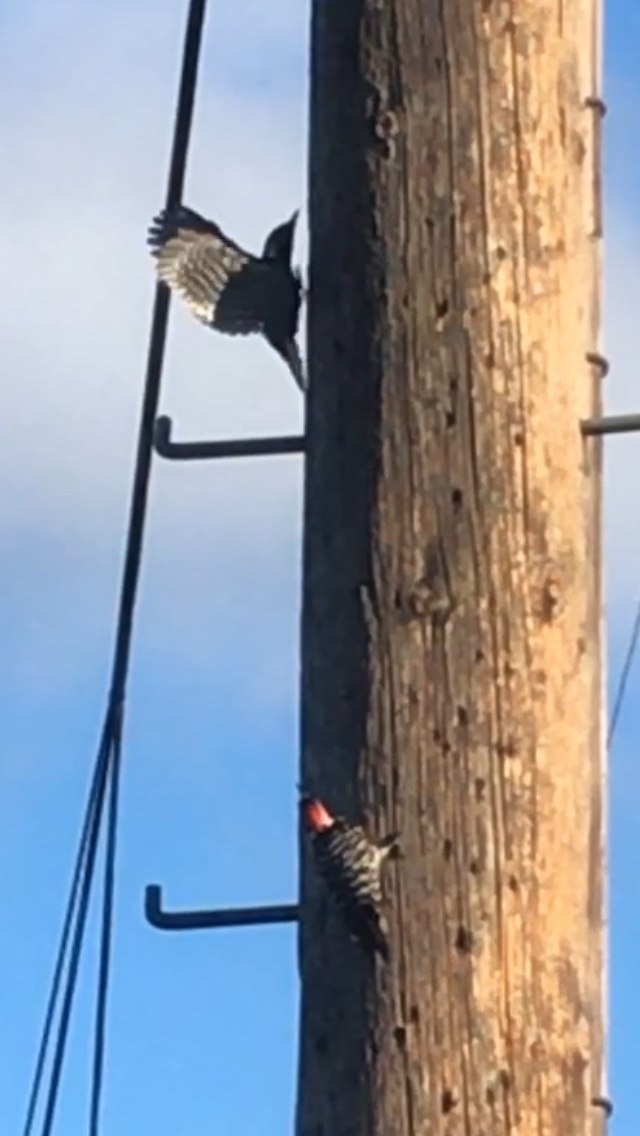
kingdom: Animalia
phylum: Chordata
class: Aves
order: Piciformes
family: Picidae
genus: Dryobates
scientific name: Dryobates nuttallii
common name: Nuttall's woodpecker
